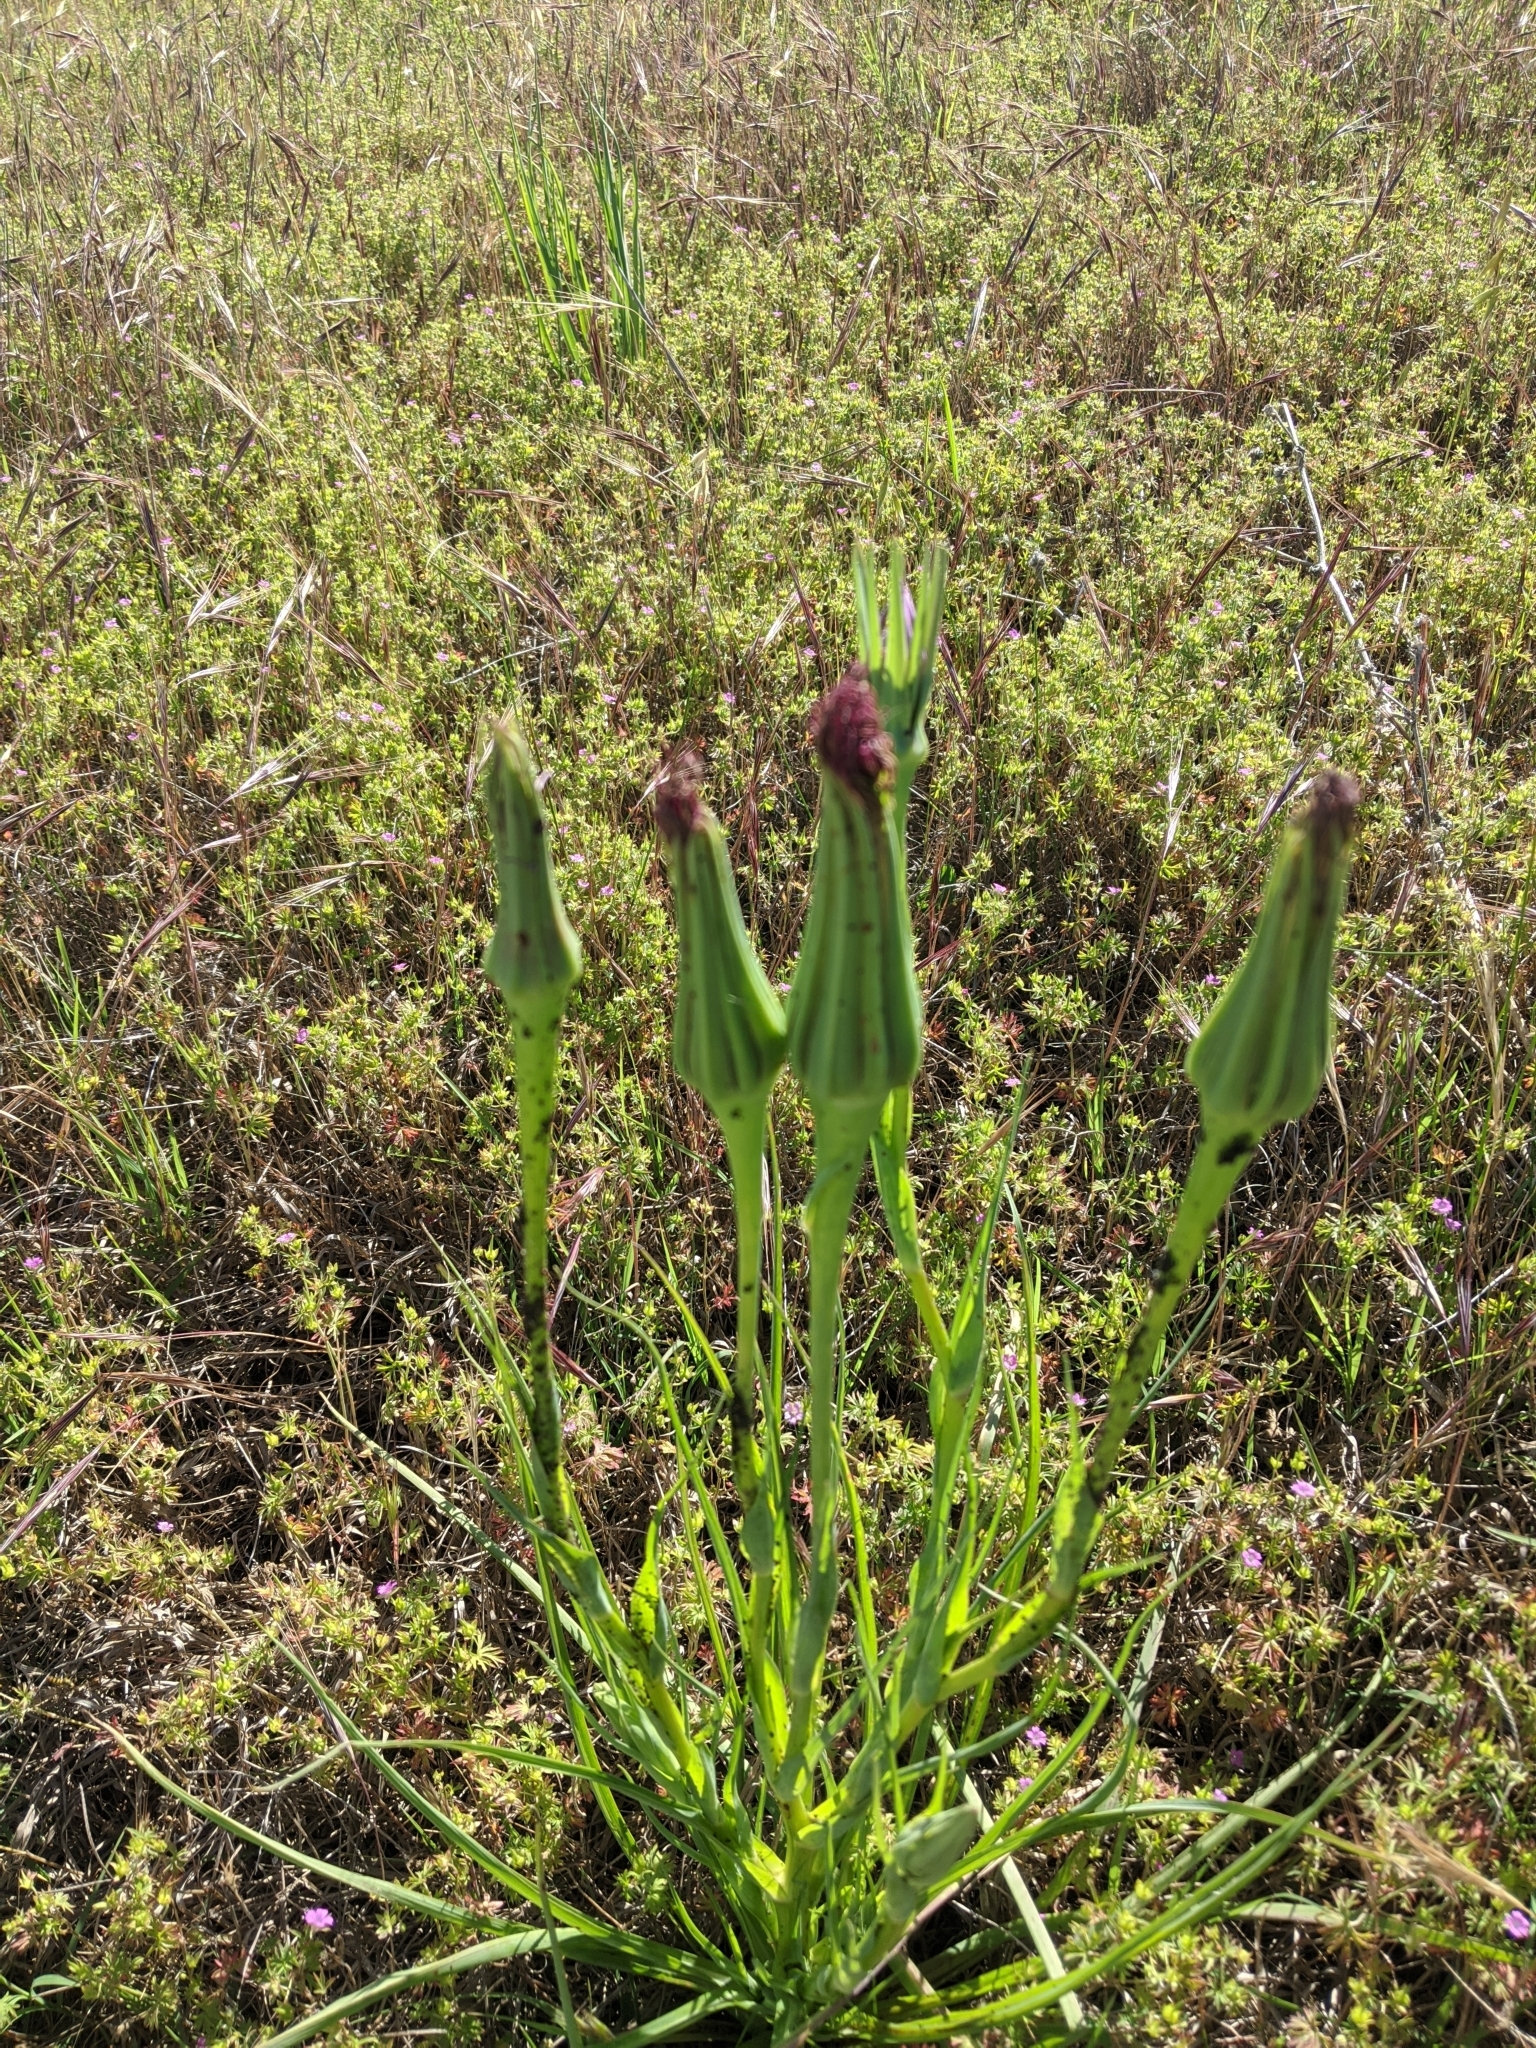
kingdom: Plantae
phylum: Tracheophyta
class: Magnoliopsida
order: Asterales
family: Asteraceae
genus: Tragopogon
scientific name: Tragopogon porrifolius
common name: Salsify
